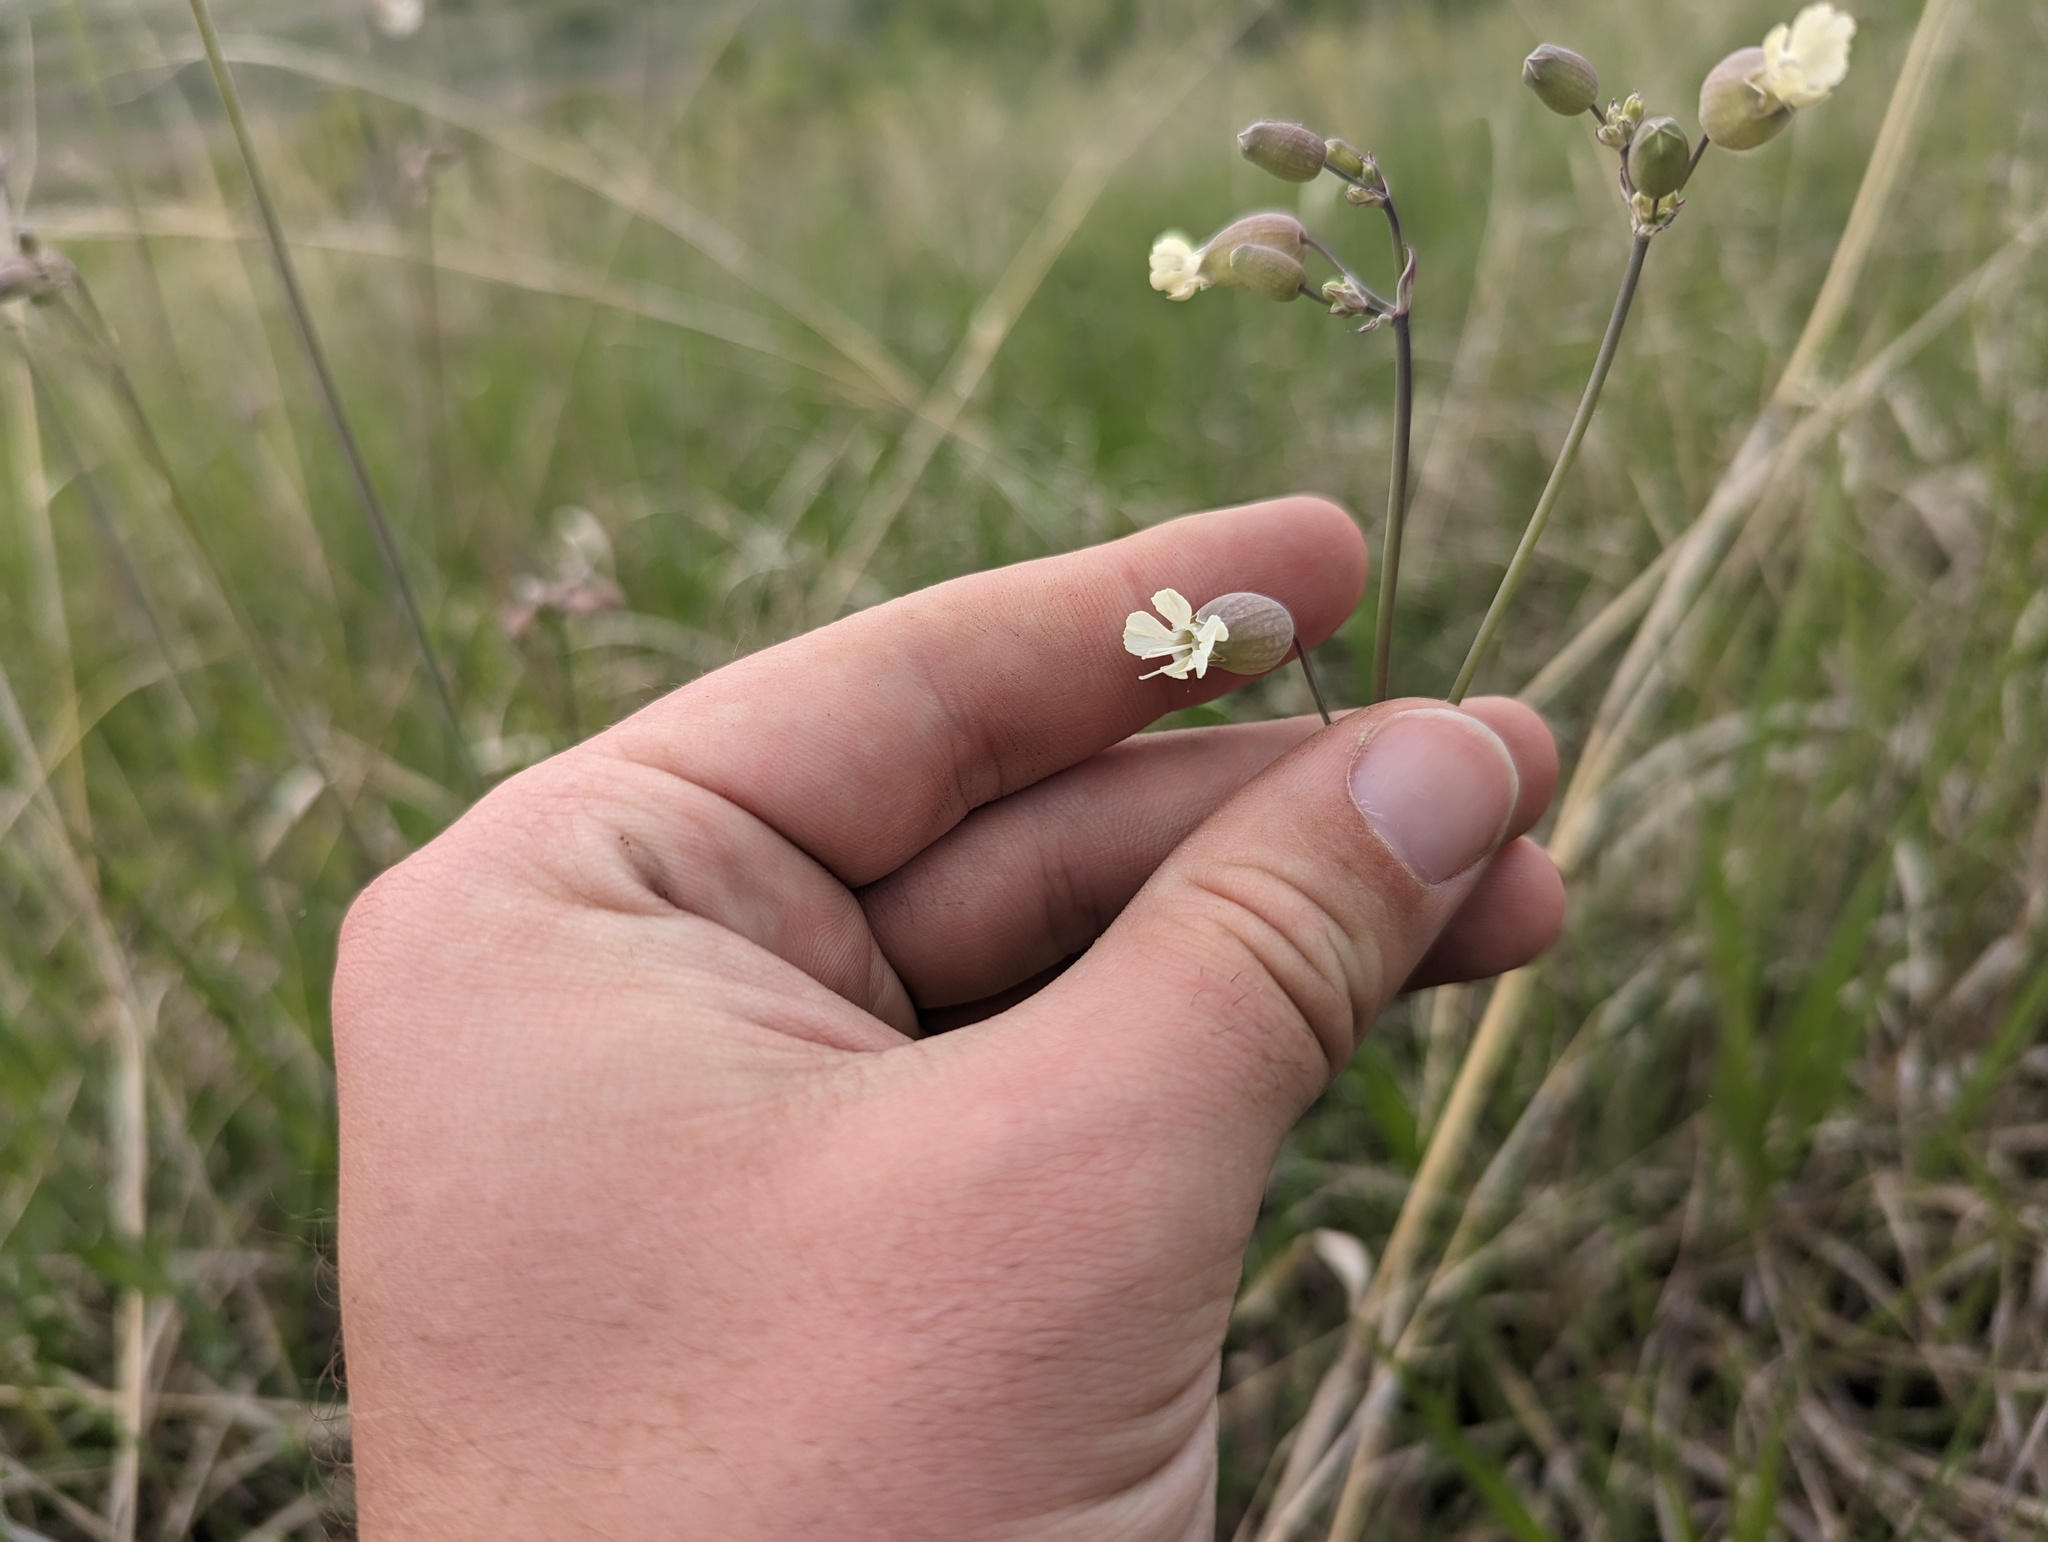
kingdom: Plantae
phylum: Tracheophyta
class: Magnoliopsida
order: Caryophyllales
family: Caryophyllaceae
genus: Silene
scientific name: Silene vulgaris
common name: Bladder campion
